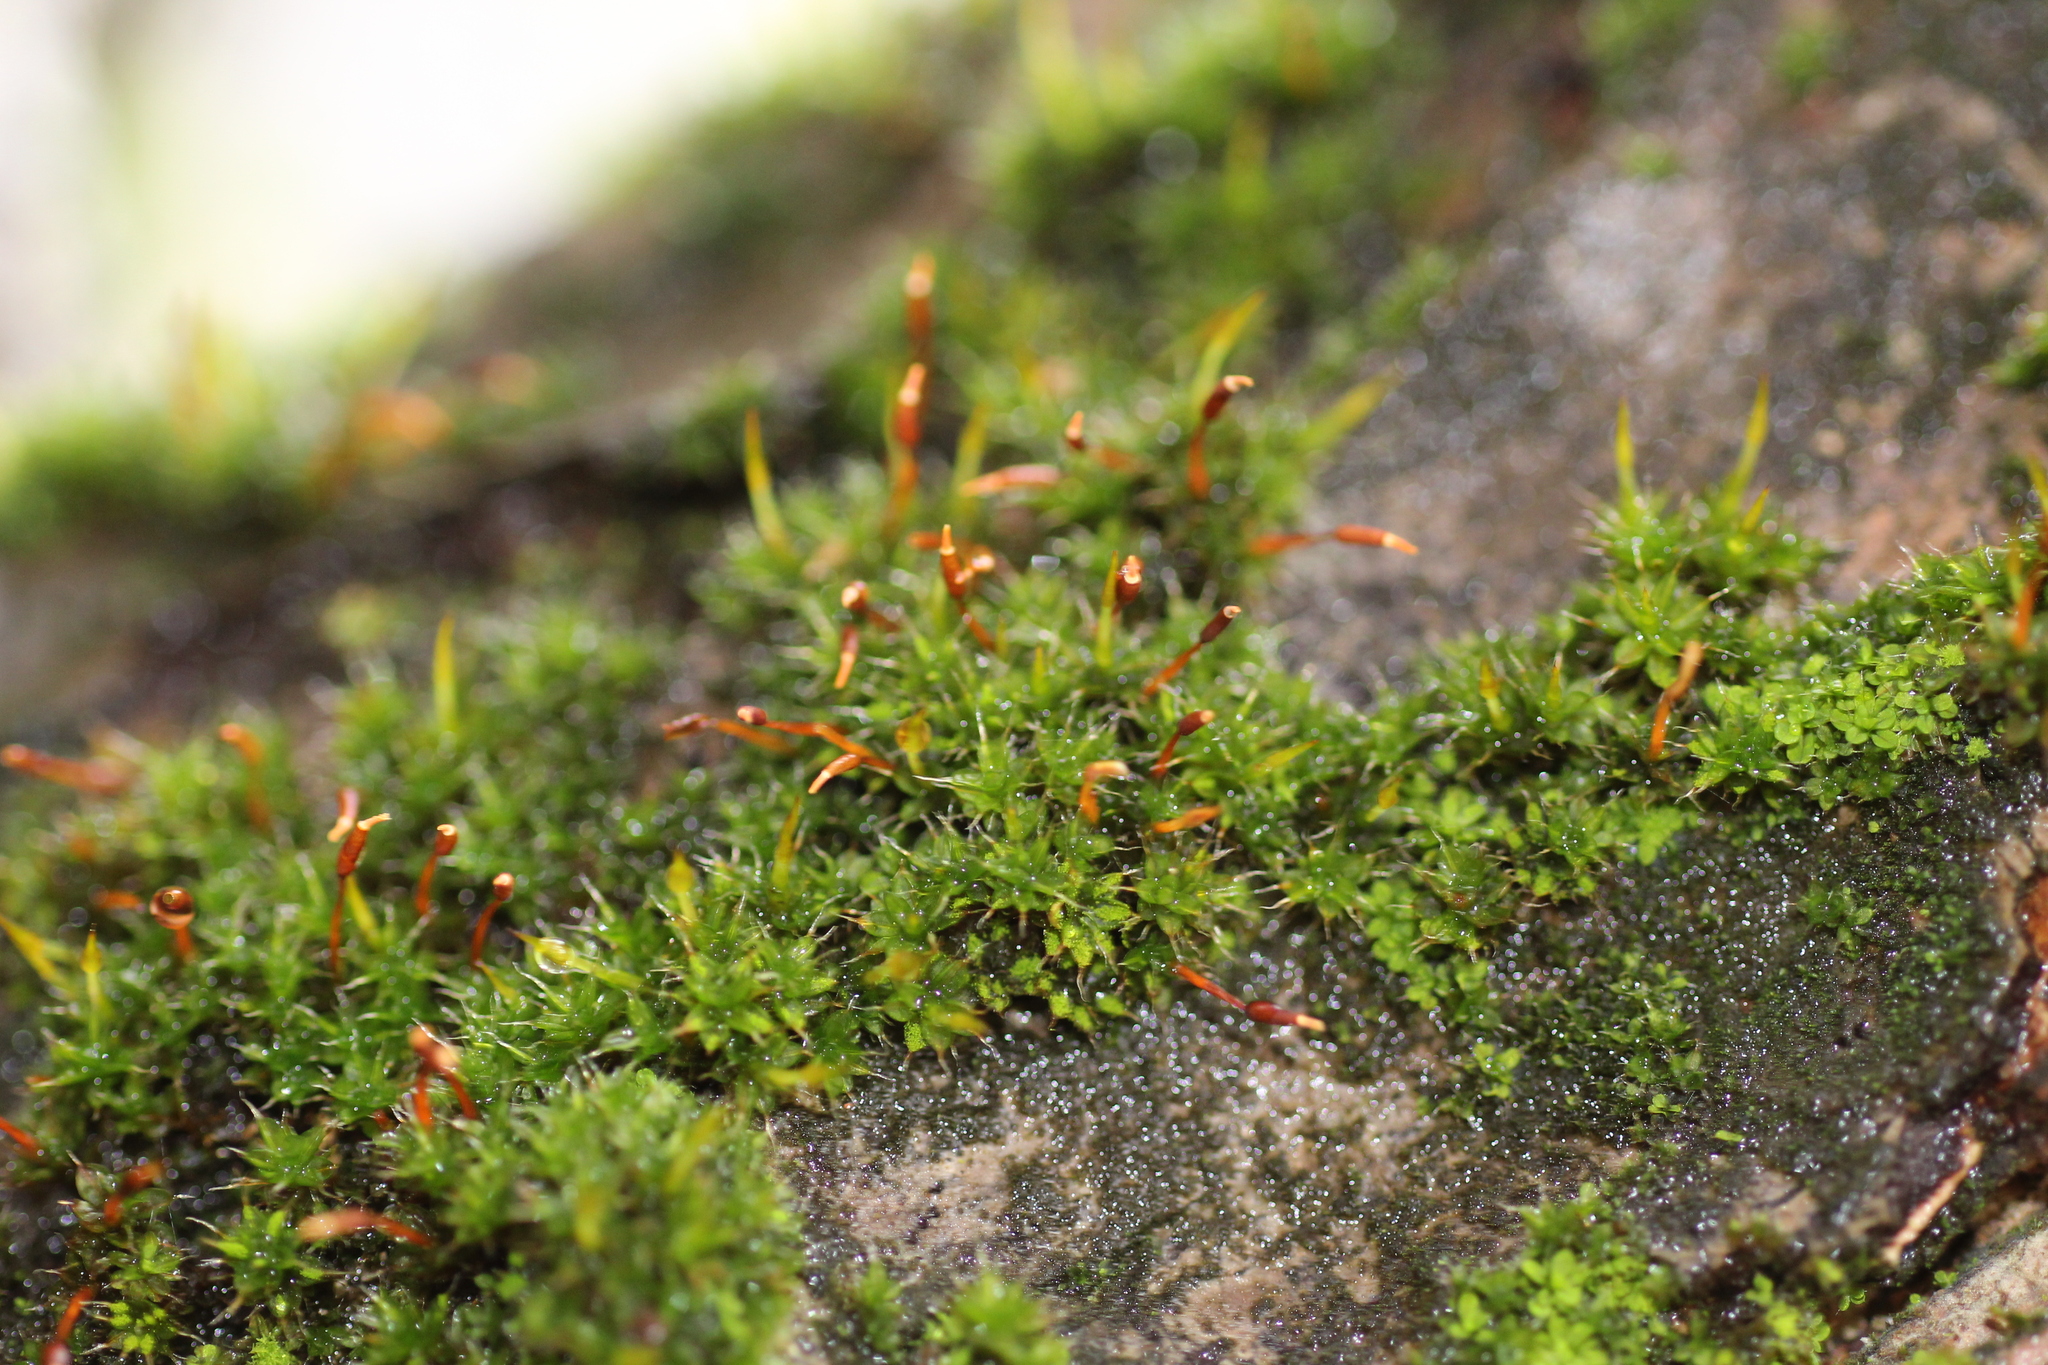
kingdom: Plantae
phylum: Bryophyta
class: Bryopsida
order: Pottiales
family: Pottiaceae
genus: Syntrichia
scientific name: Syntrichia papillosa
